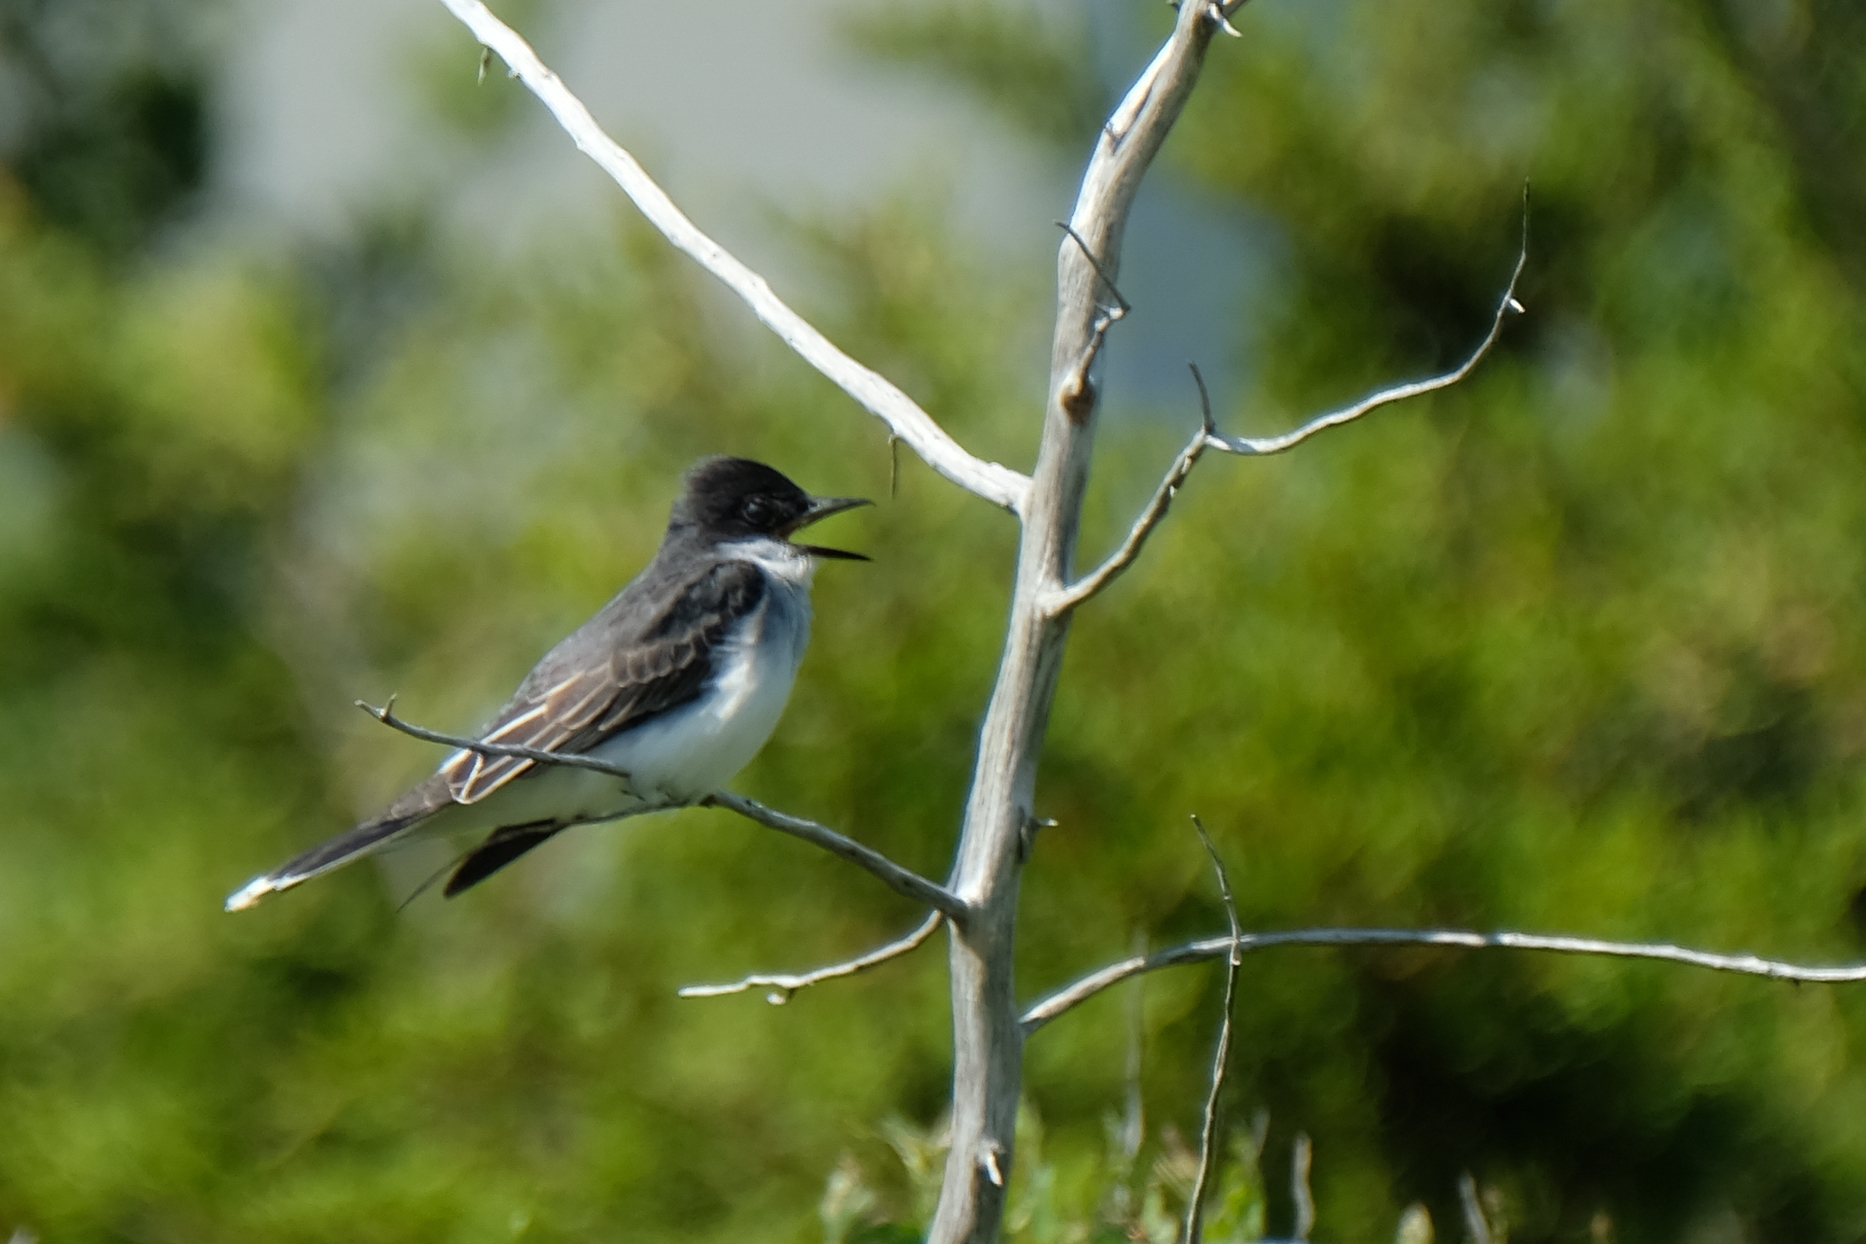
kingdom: Animalia
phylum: Chordata
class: Aves
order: Passeriformes
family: Tyrannidae
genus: Tyrannus
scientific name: Tyrannus tyrannus
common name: Eastern kingbird
